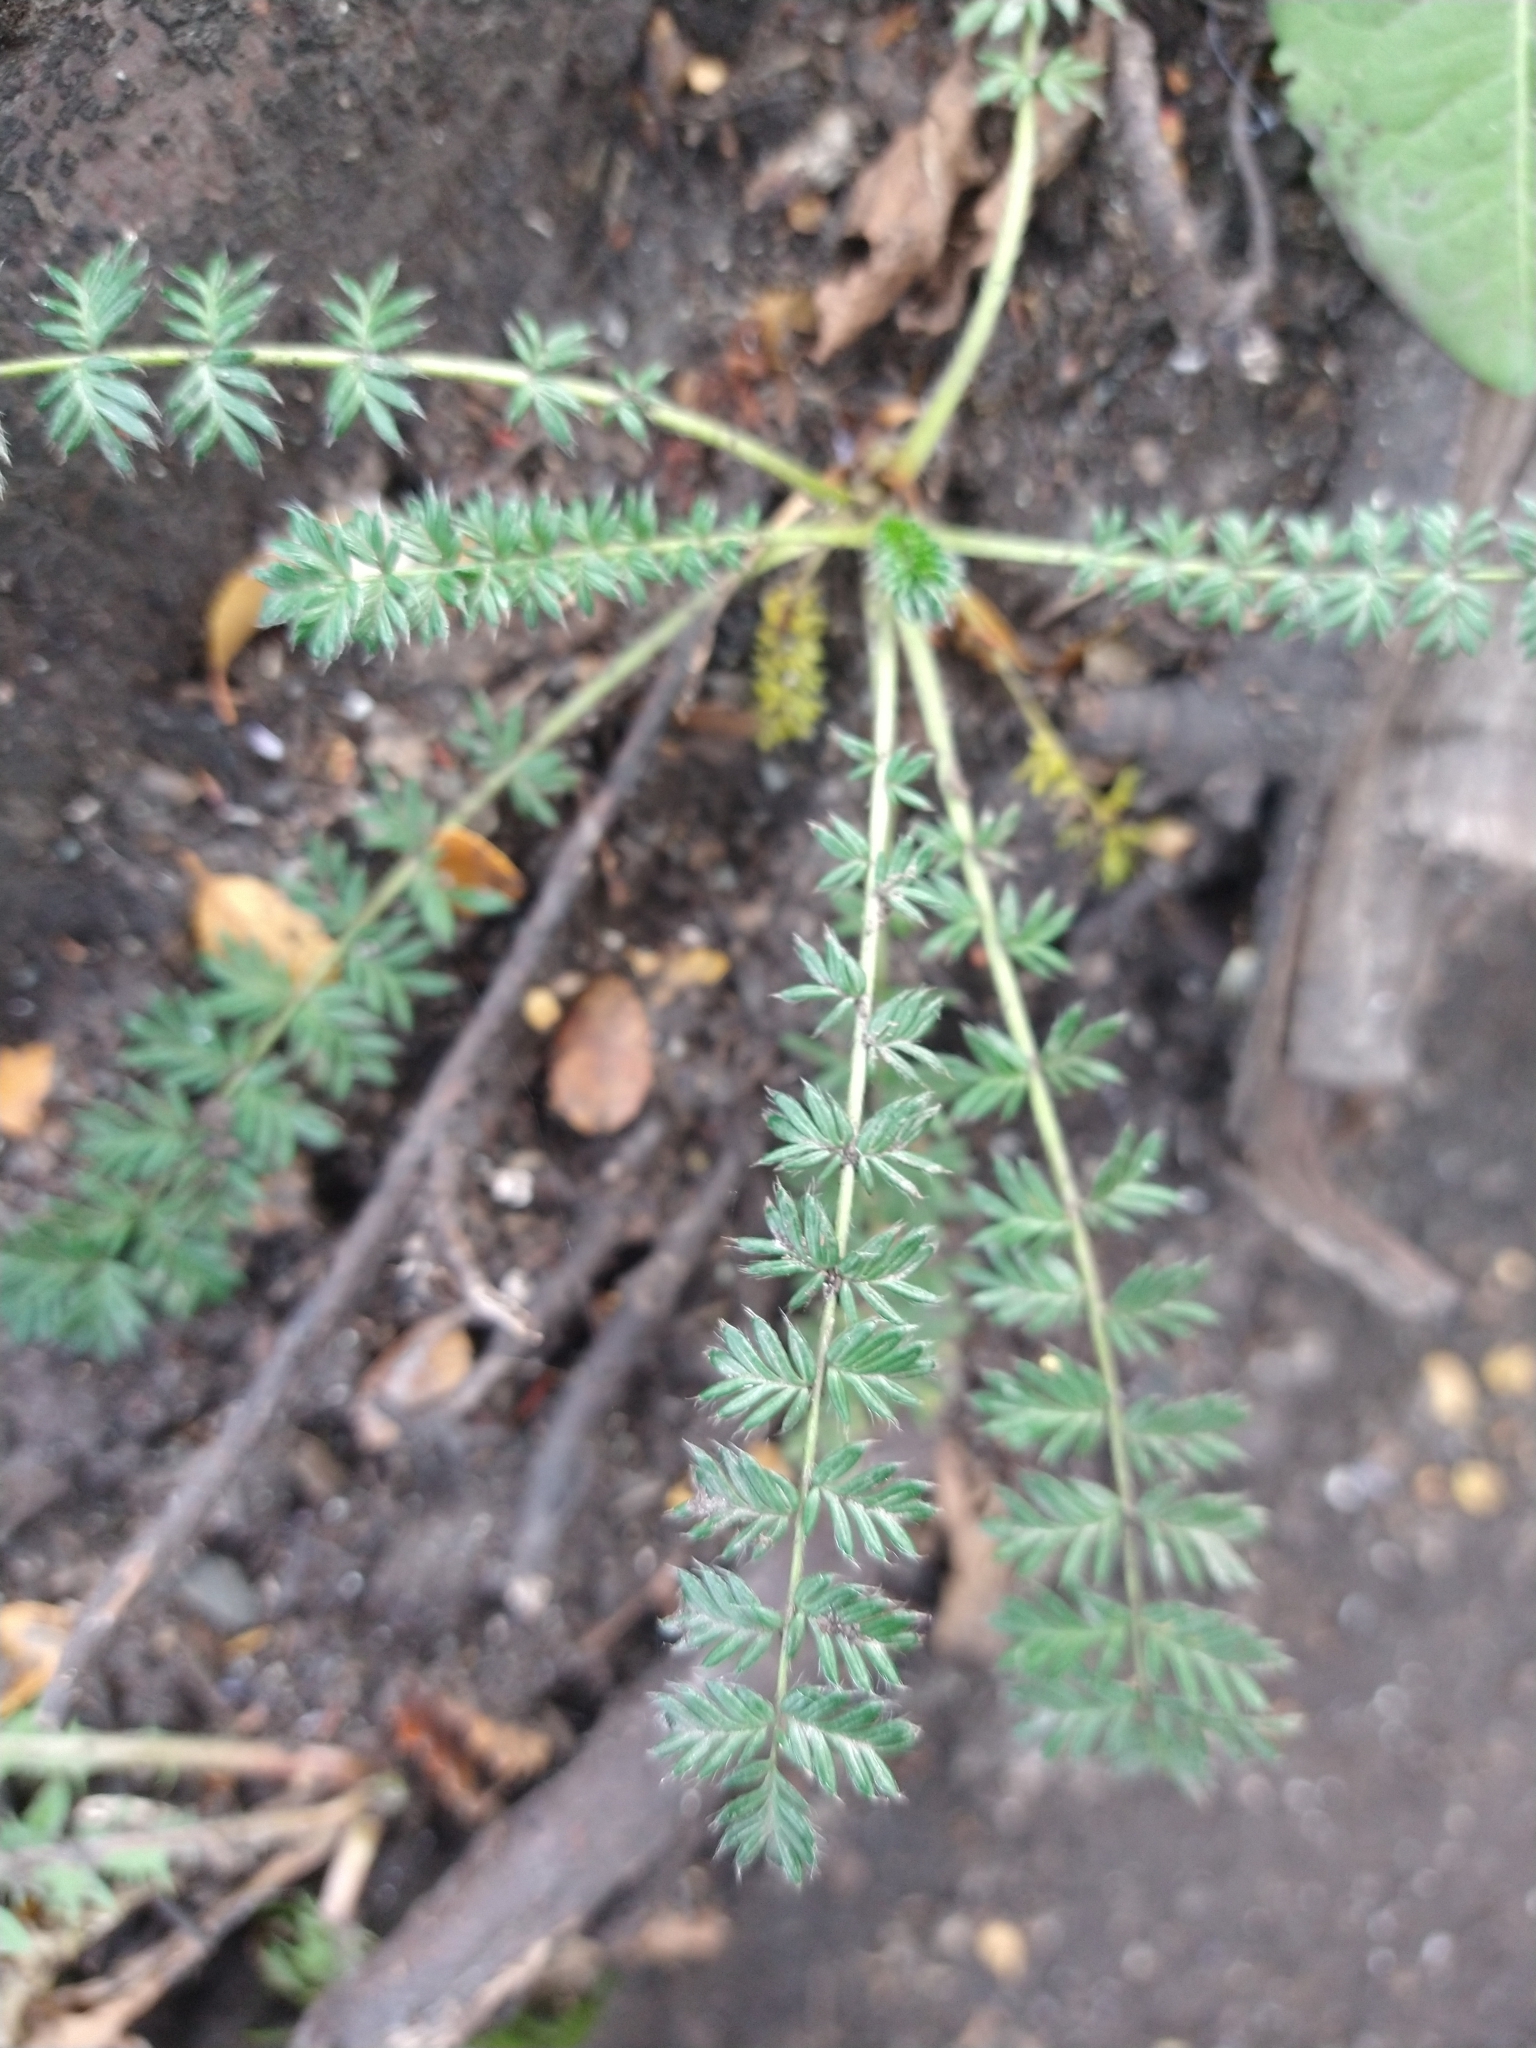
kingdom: Plantae
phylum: Tracheophyta
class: Magnoliopsida
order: Rosales
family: Rosaceae
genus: Acaena
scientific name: Acaena pinnatifida
